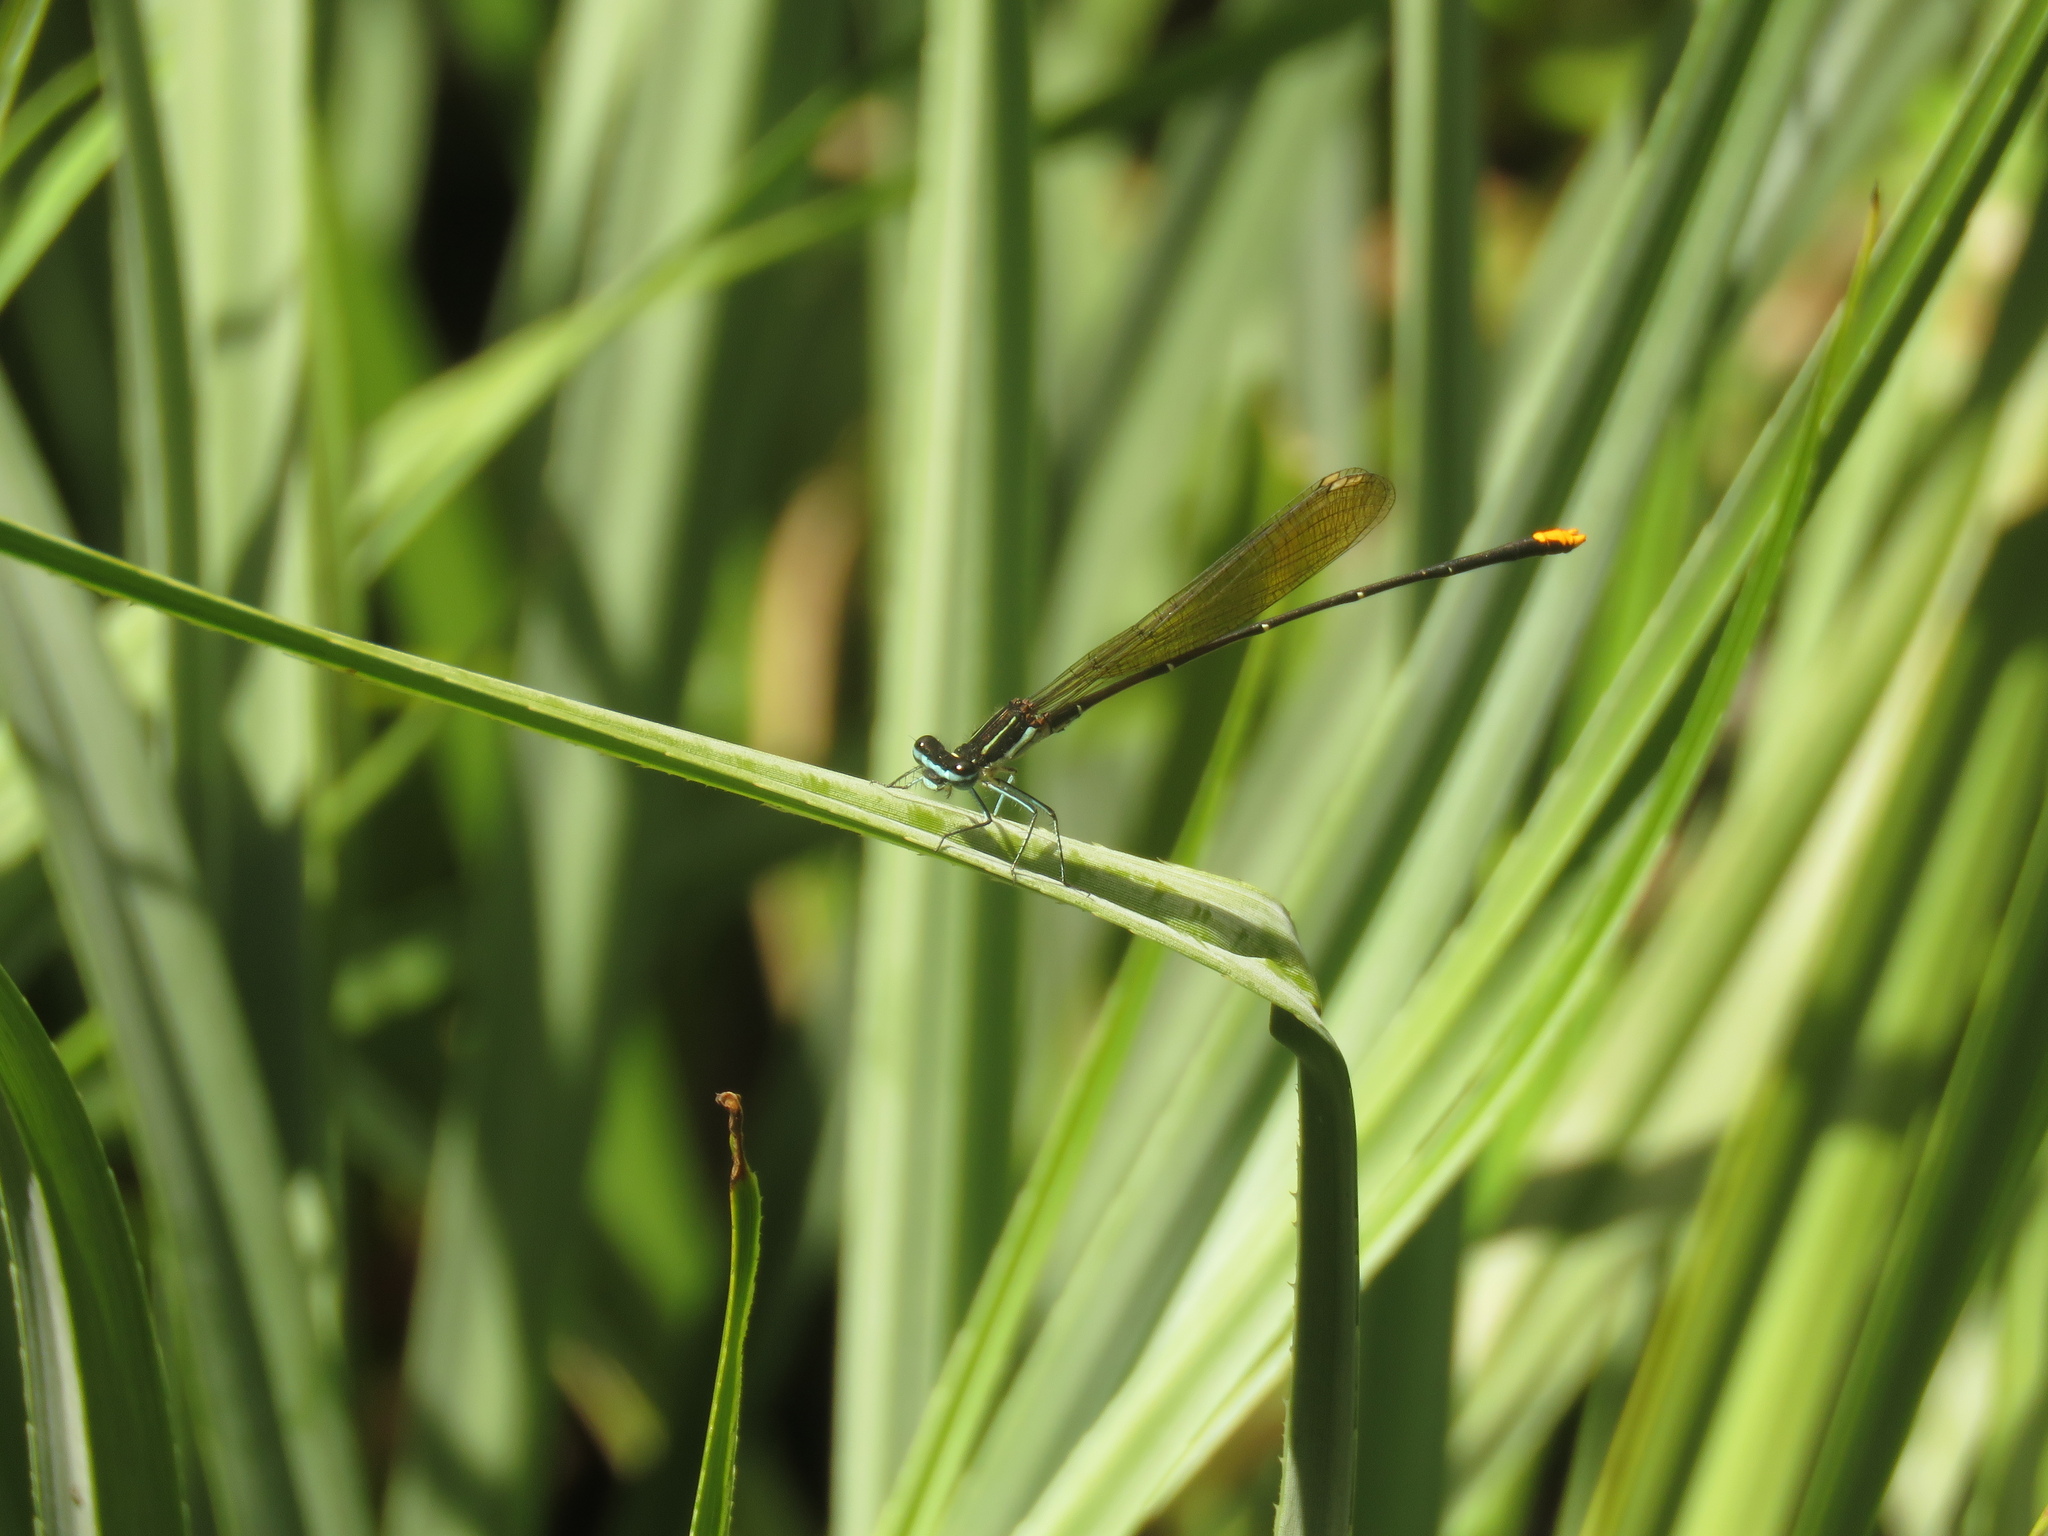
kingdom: Animalia
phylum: Arthropoda
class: Insecta
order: Odonata
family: Platycnemididae
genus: Allocnemis
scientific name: Allocnemis leucosticta
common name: Goldtail
